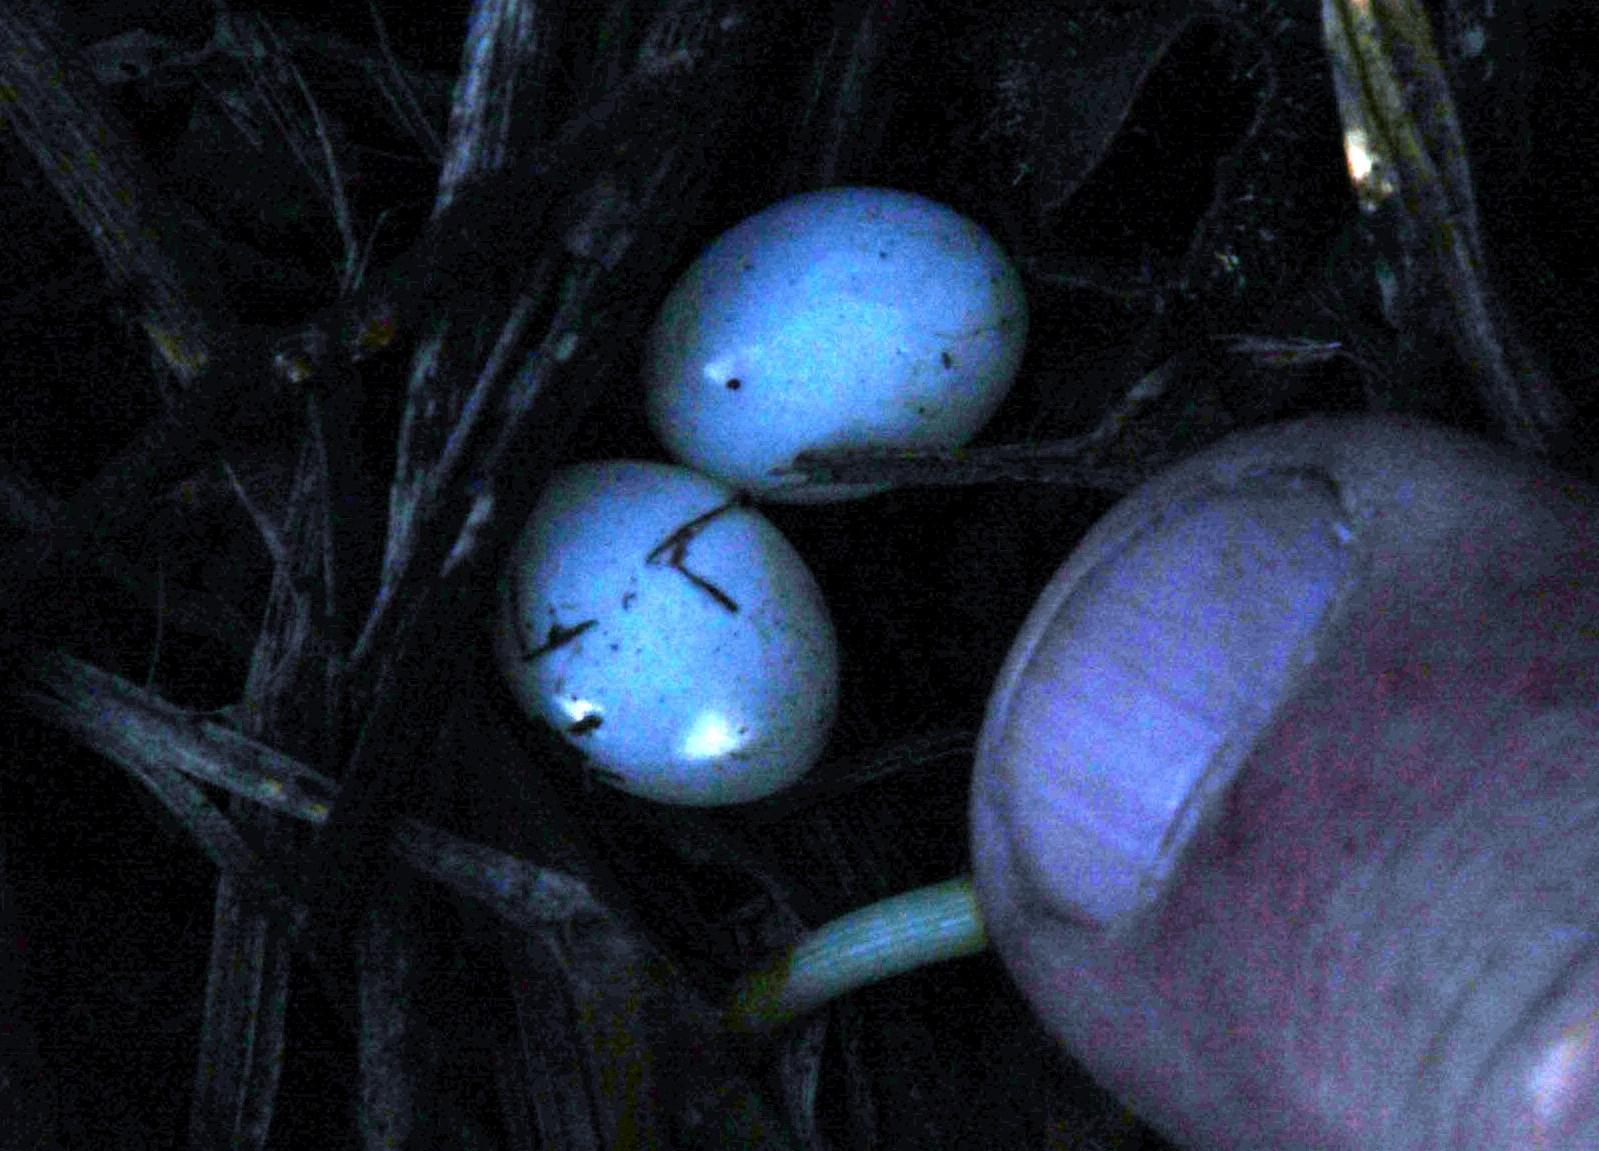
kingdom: Animalia
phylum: Chordata
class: Squamata
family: Gekkonidae
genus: Afrogecko
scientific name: Afrogecko porphyreus
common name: Marbled leaf-toed gecko
